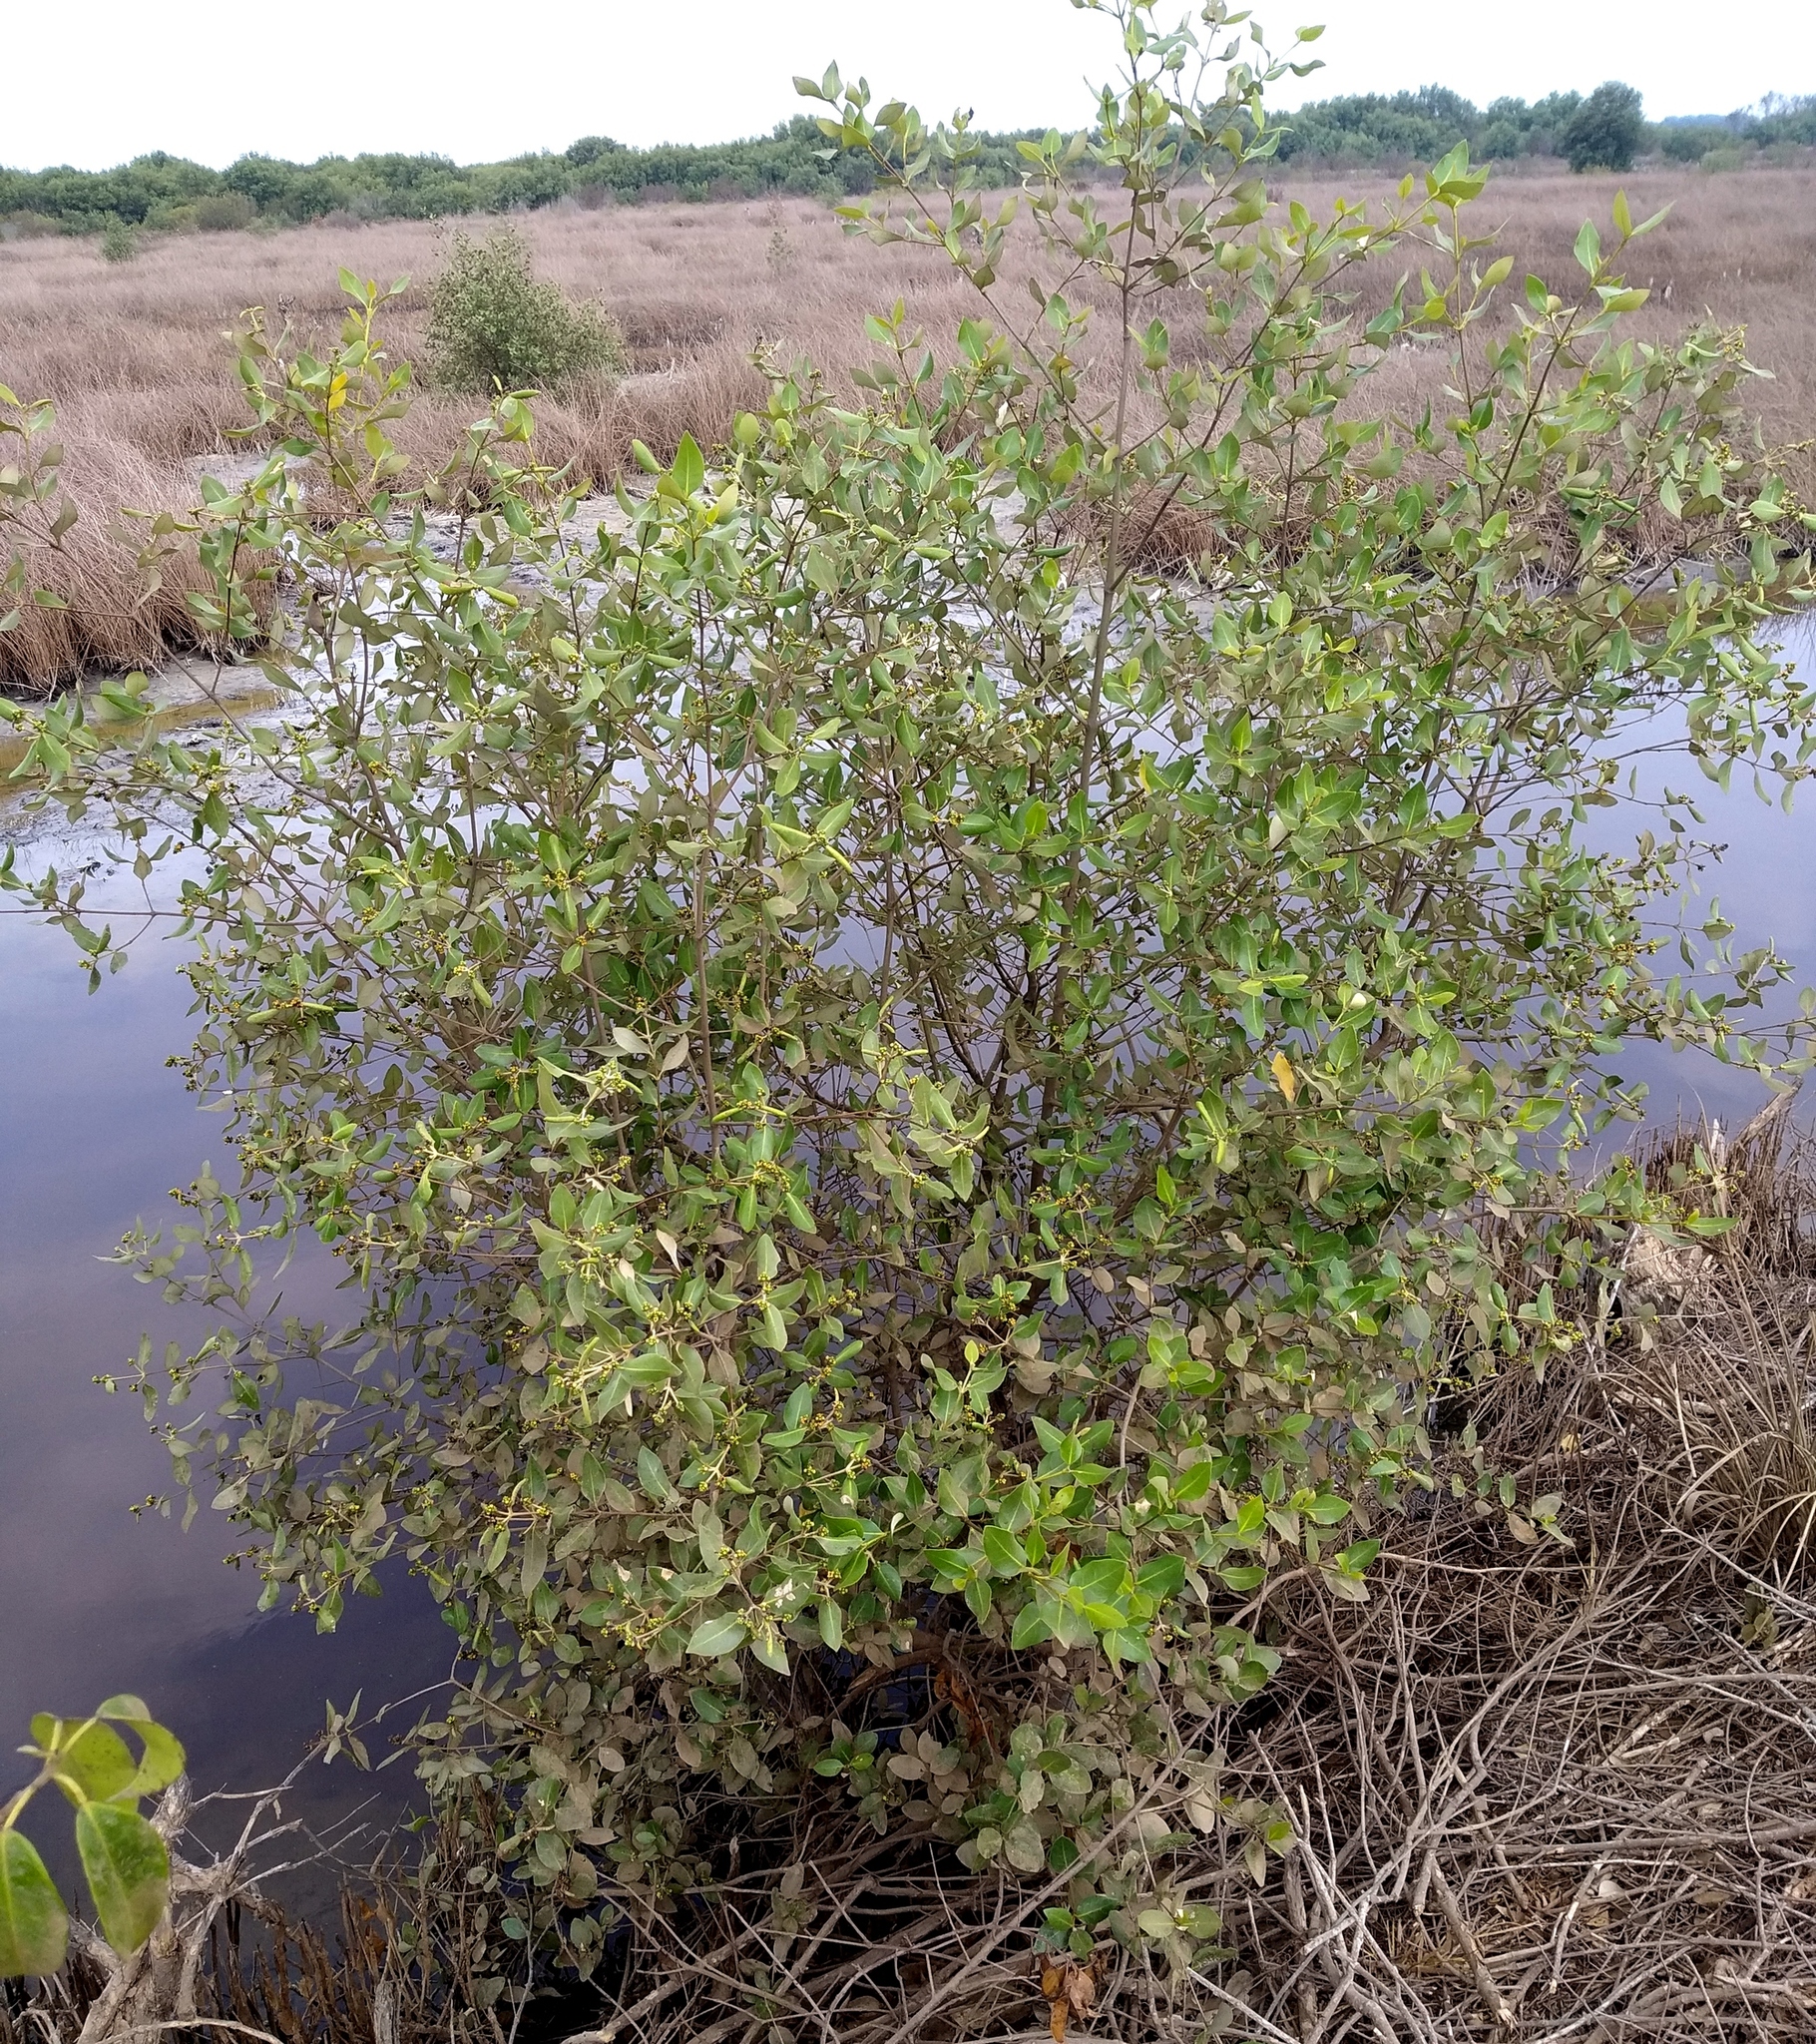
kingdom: Plantae
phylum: Tracheophyta
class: Magnoliopsida
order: Lamiales
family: Acanthaceae
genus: Avicennia
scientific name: Avicennia marina
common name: Gray mangrove
